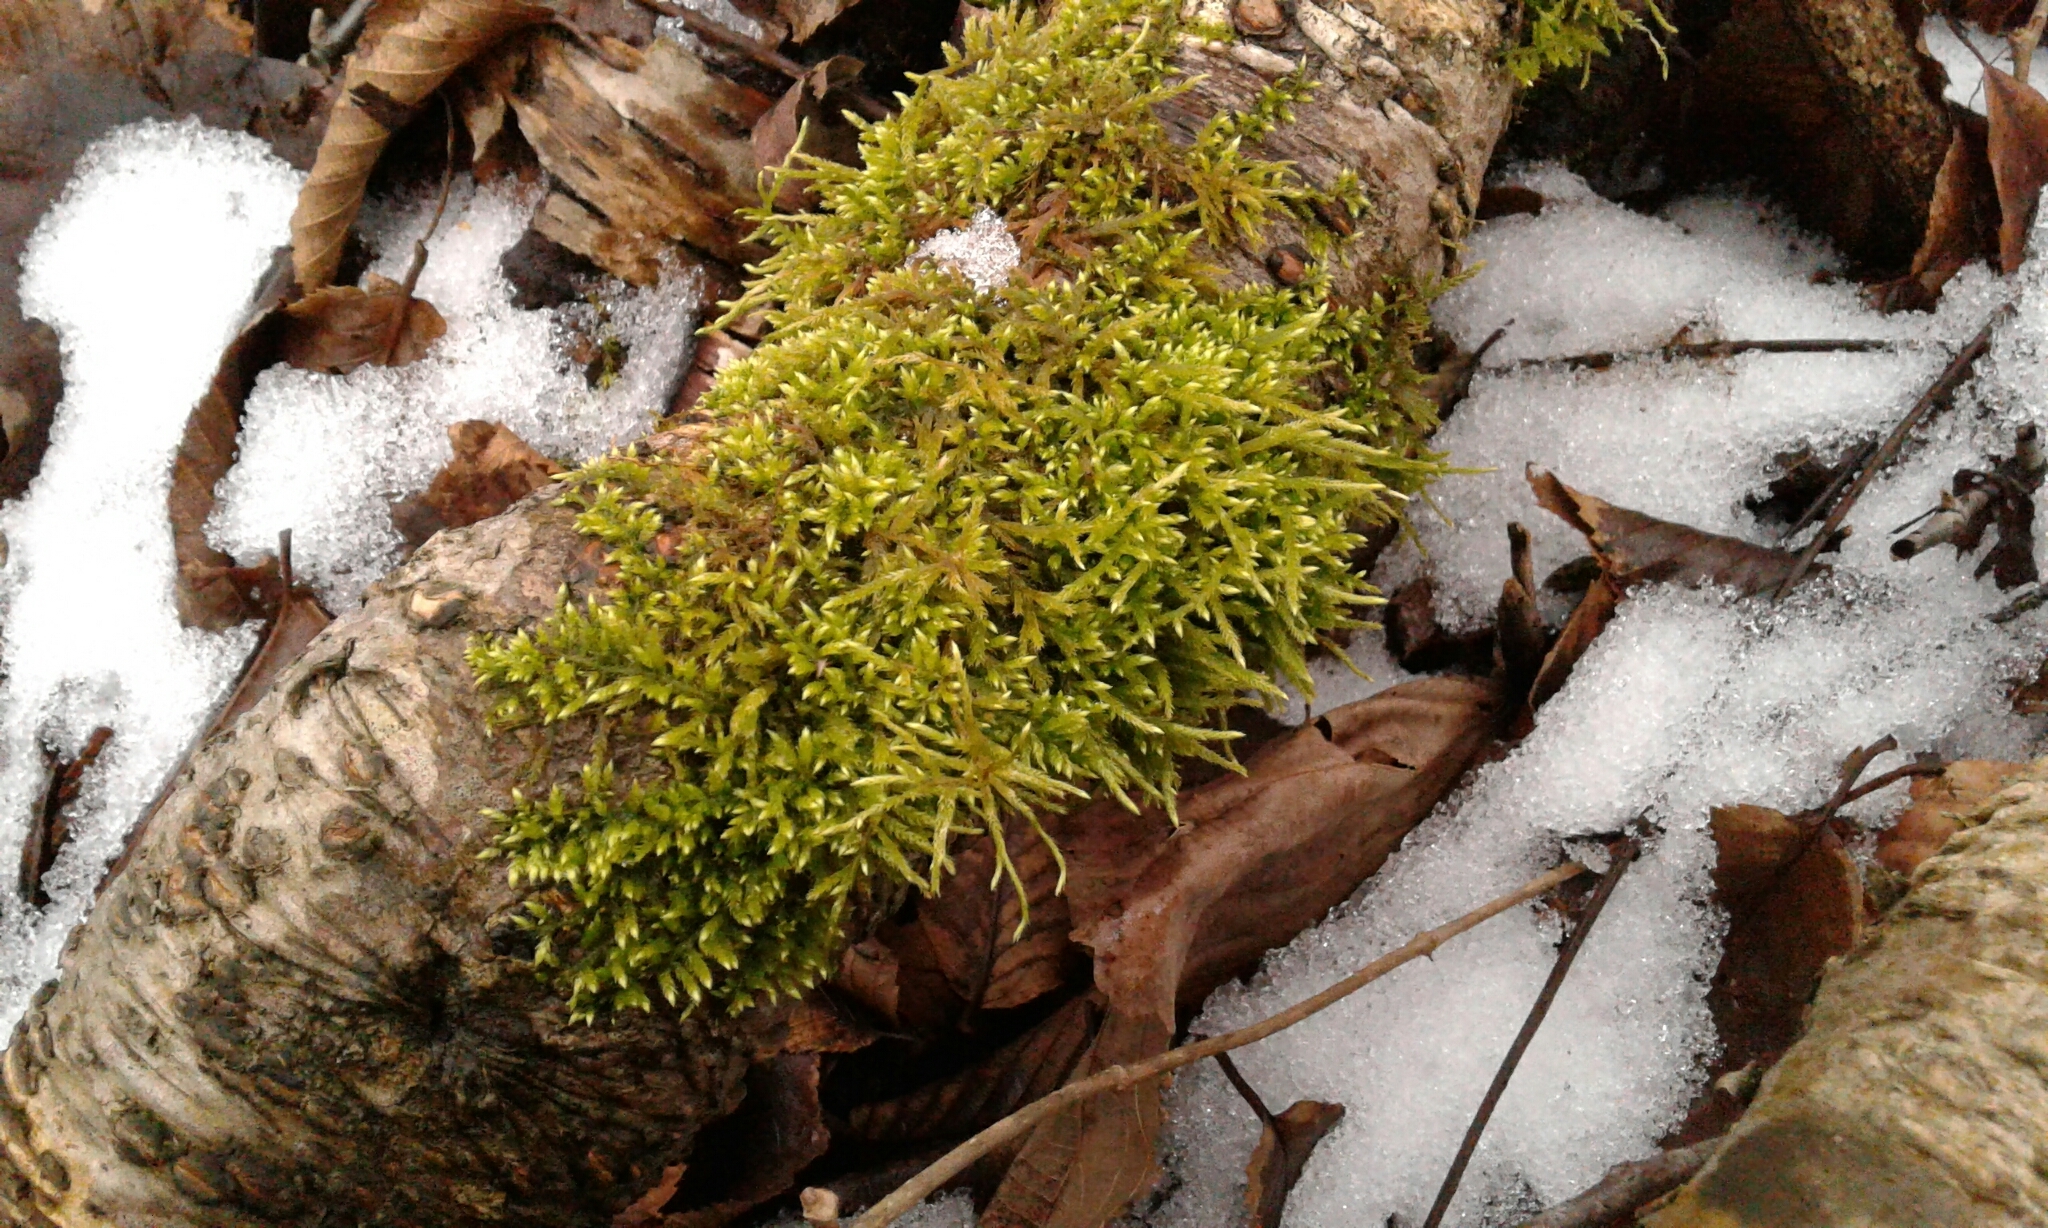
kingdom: Plantae
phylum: Bryophyta
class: Bryopsida
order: Hypnales
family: Callicladiaceae
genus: Callicladium
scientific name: Callicladium haldanianum
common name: Beautiful branch moss
